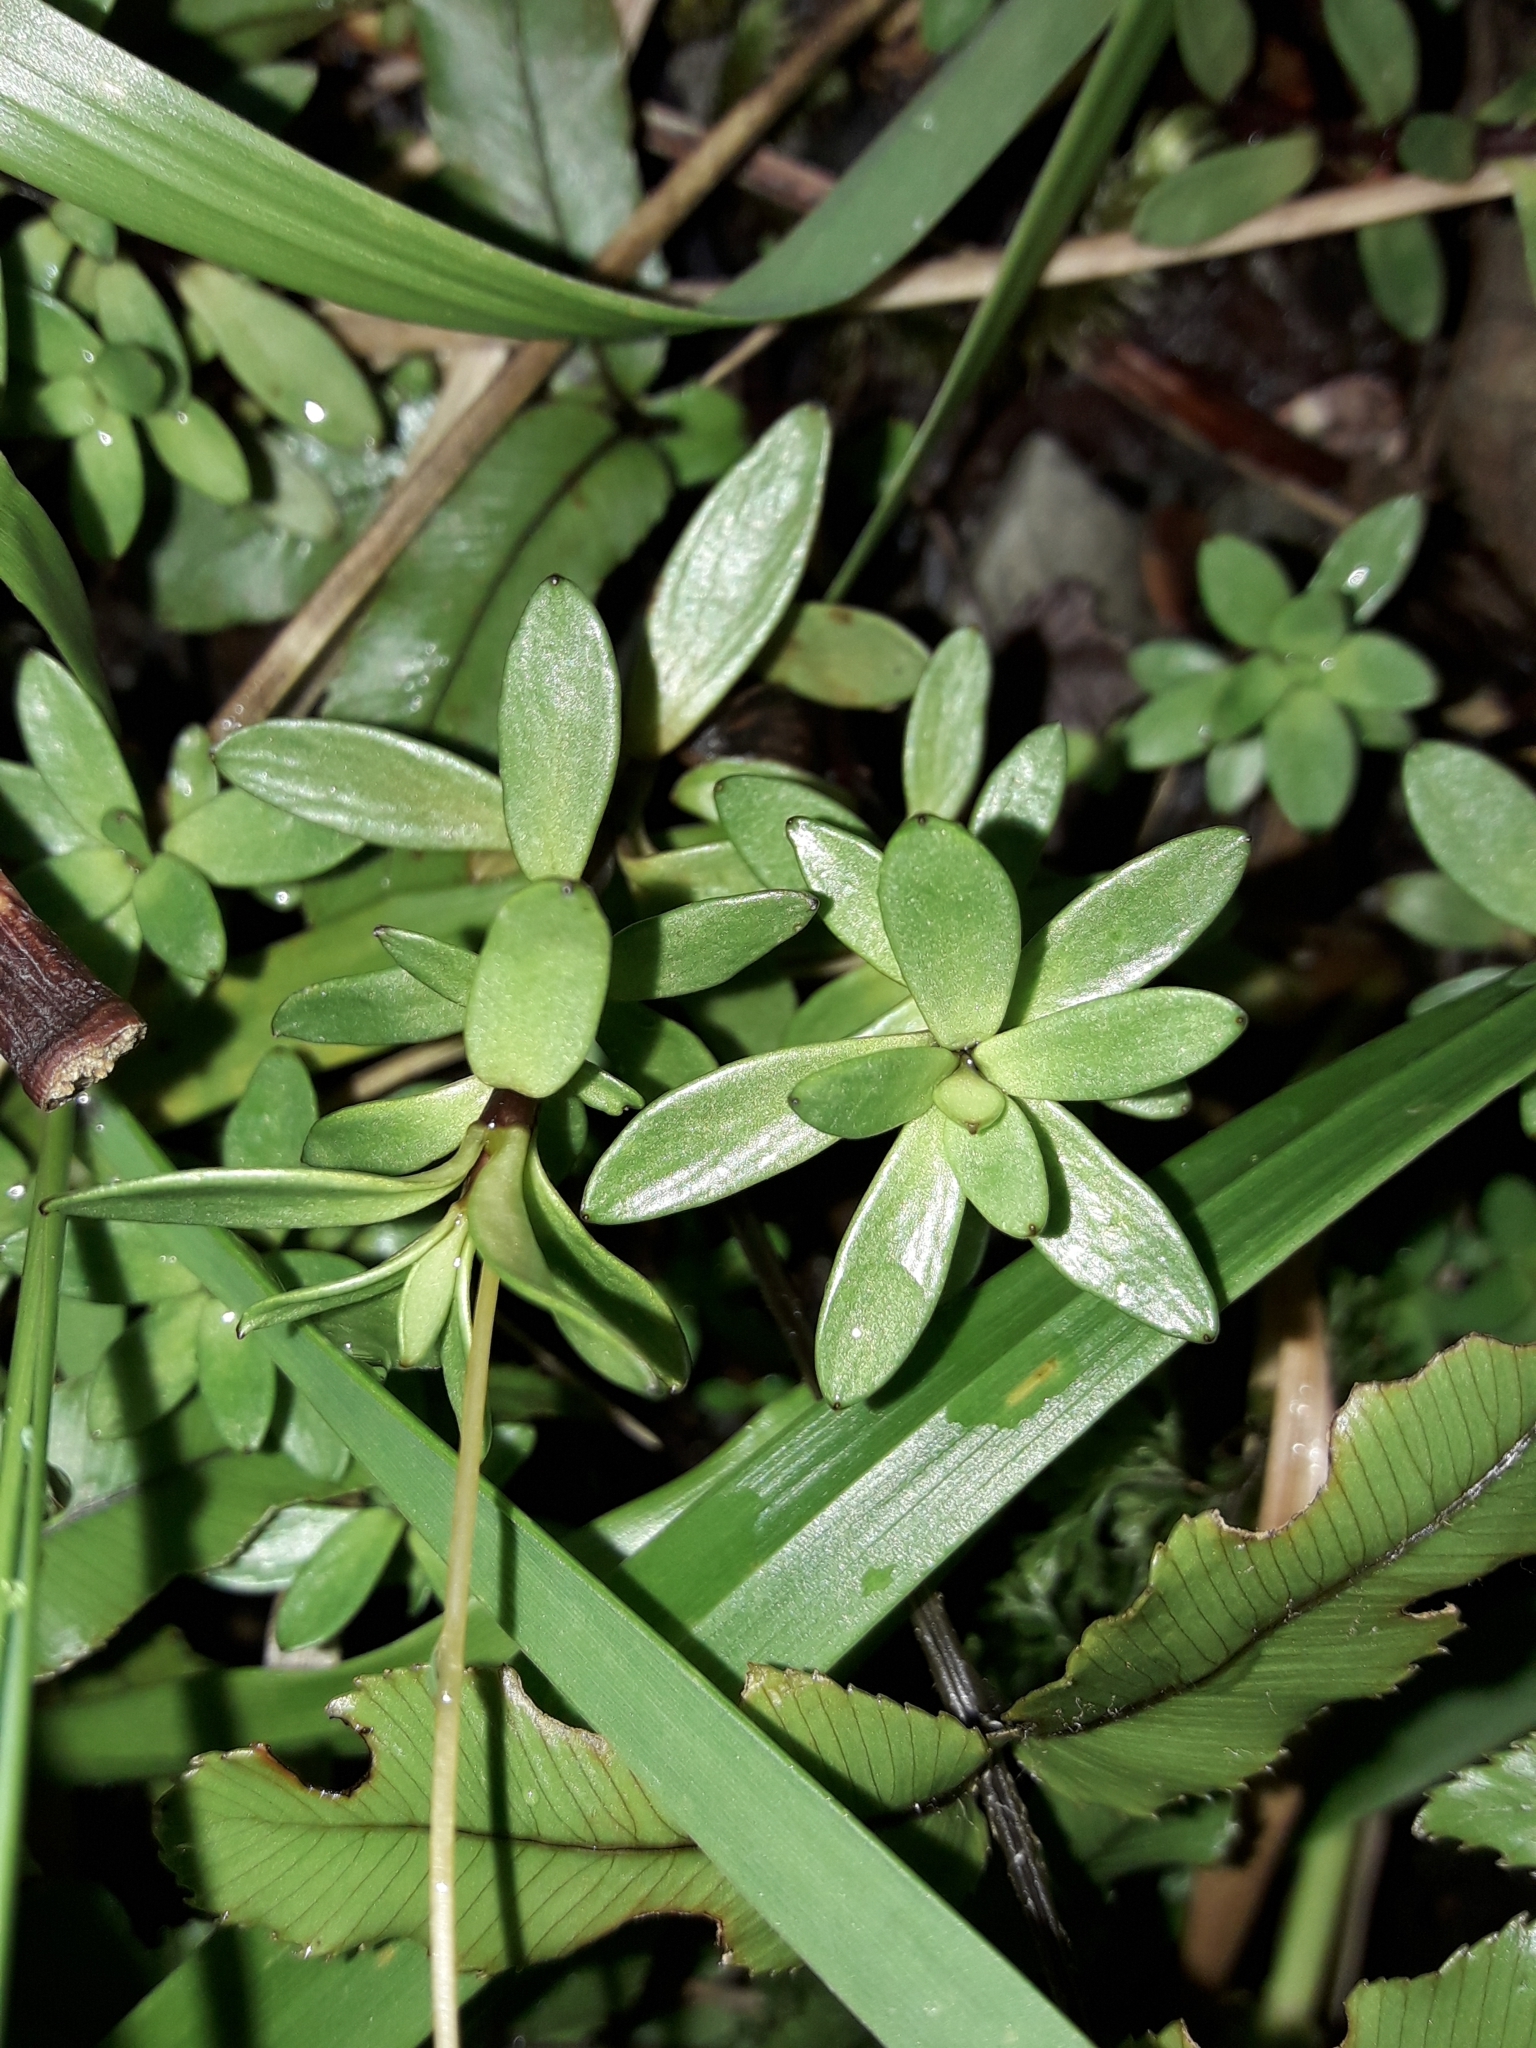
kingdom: Plantae
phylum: Tracheophyta
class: Magnoliopsida
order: Asterales
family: Stylidiaceae
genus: Forstera
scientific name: Forstera tenella
